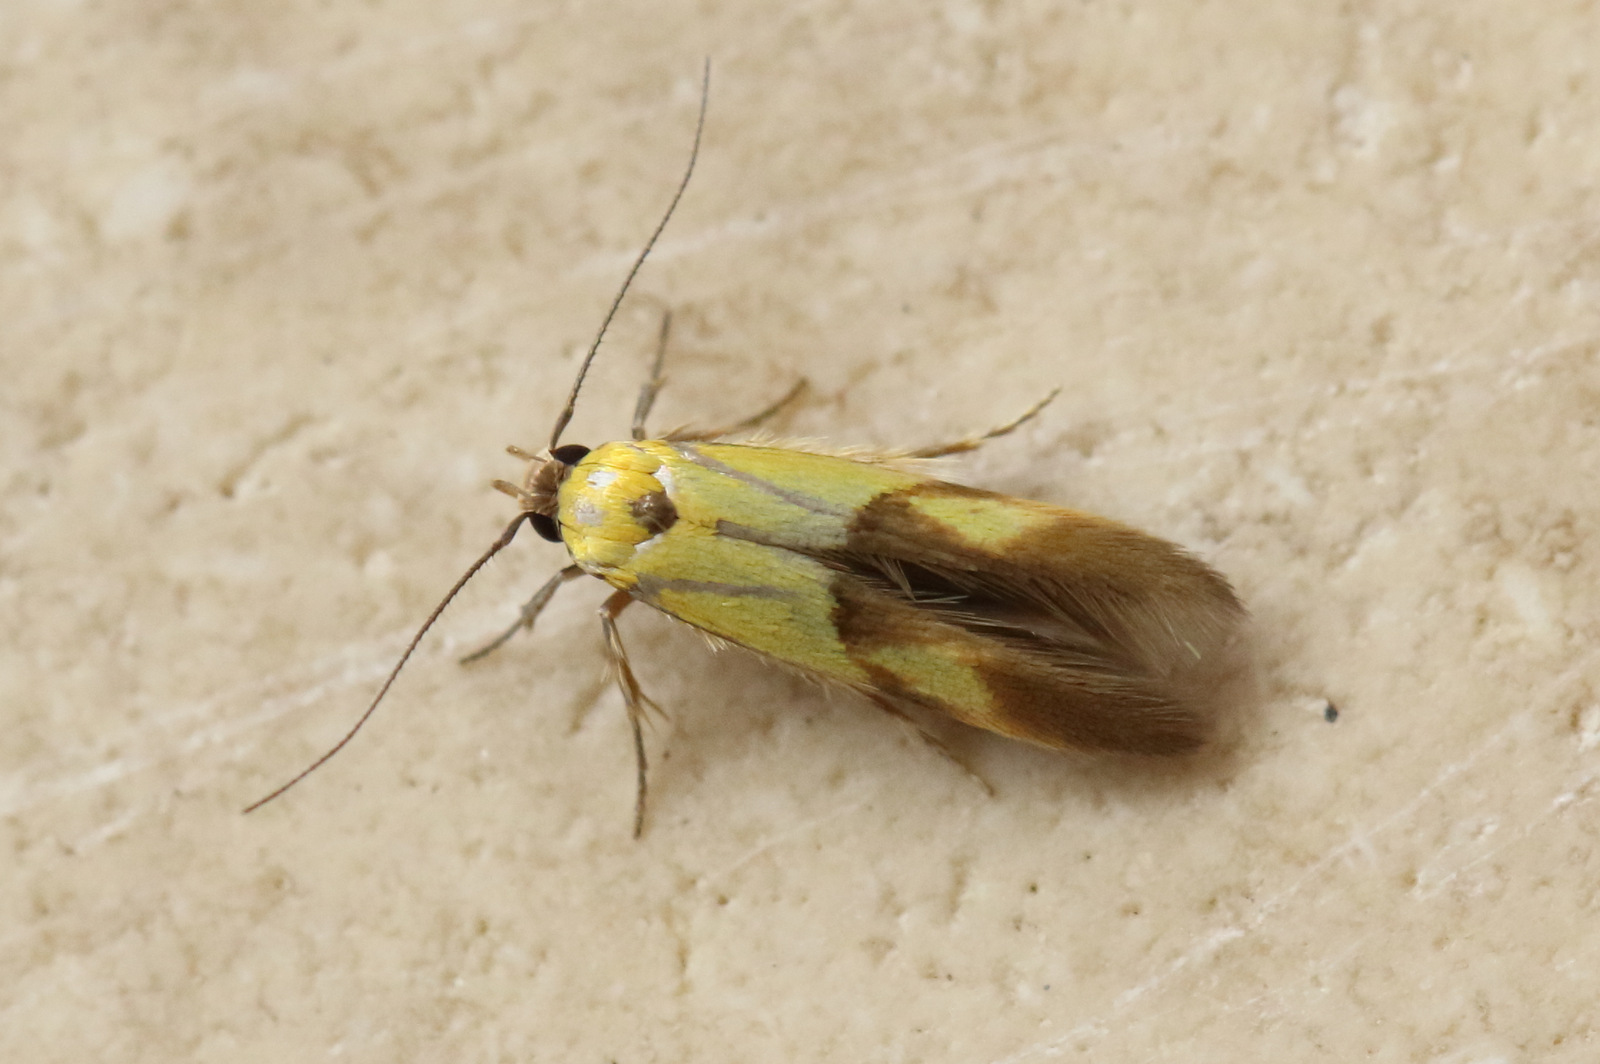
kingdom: Animalia
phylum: Arthropoda
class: Insecta
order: Lepidoptera
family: Stathmopodidae
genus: Stathmopoda
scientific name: Stathmopoda auriferella
